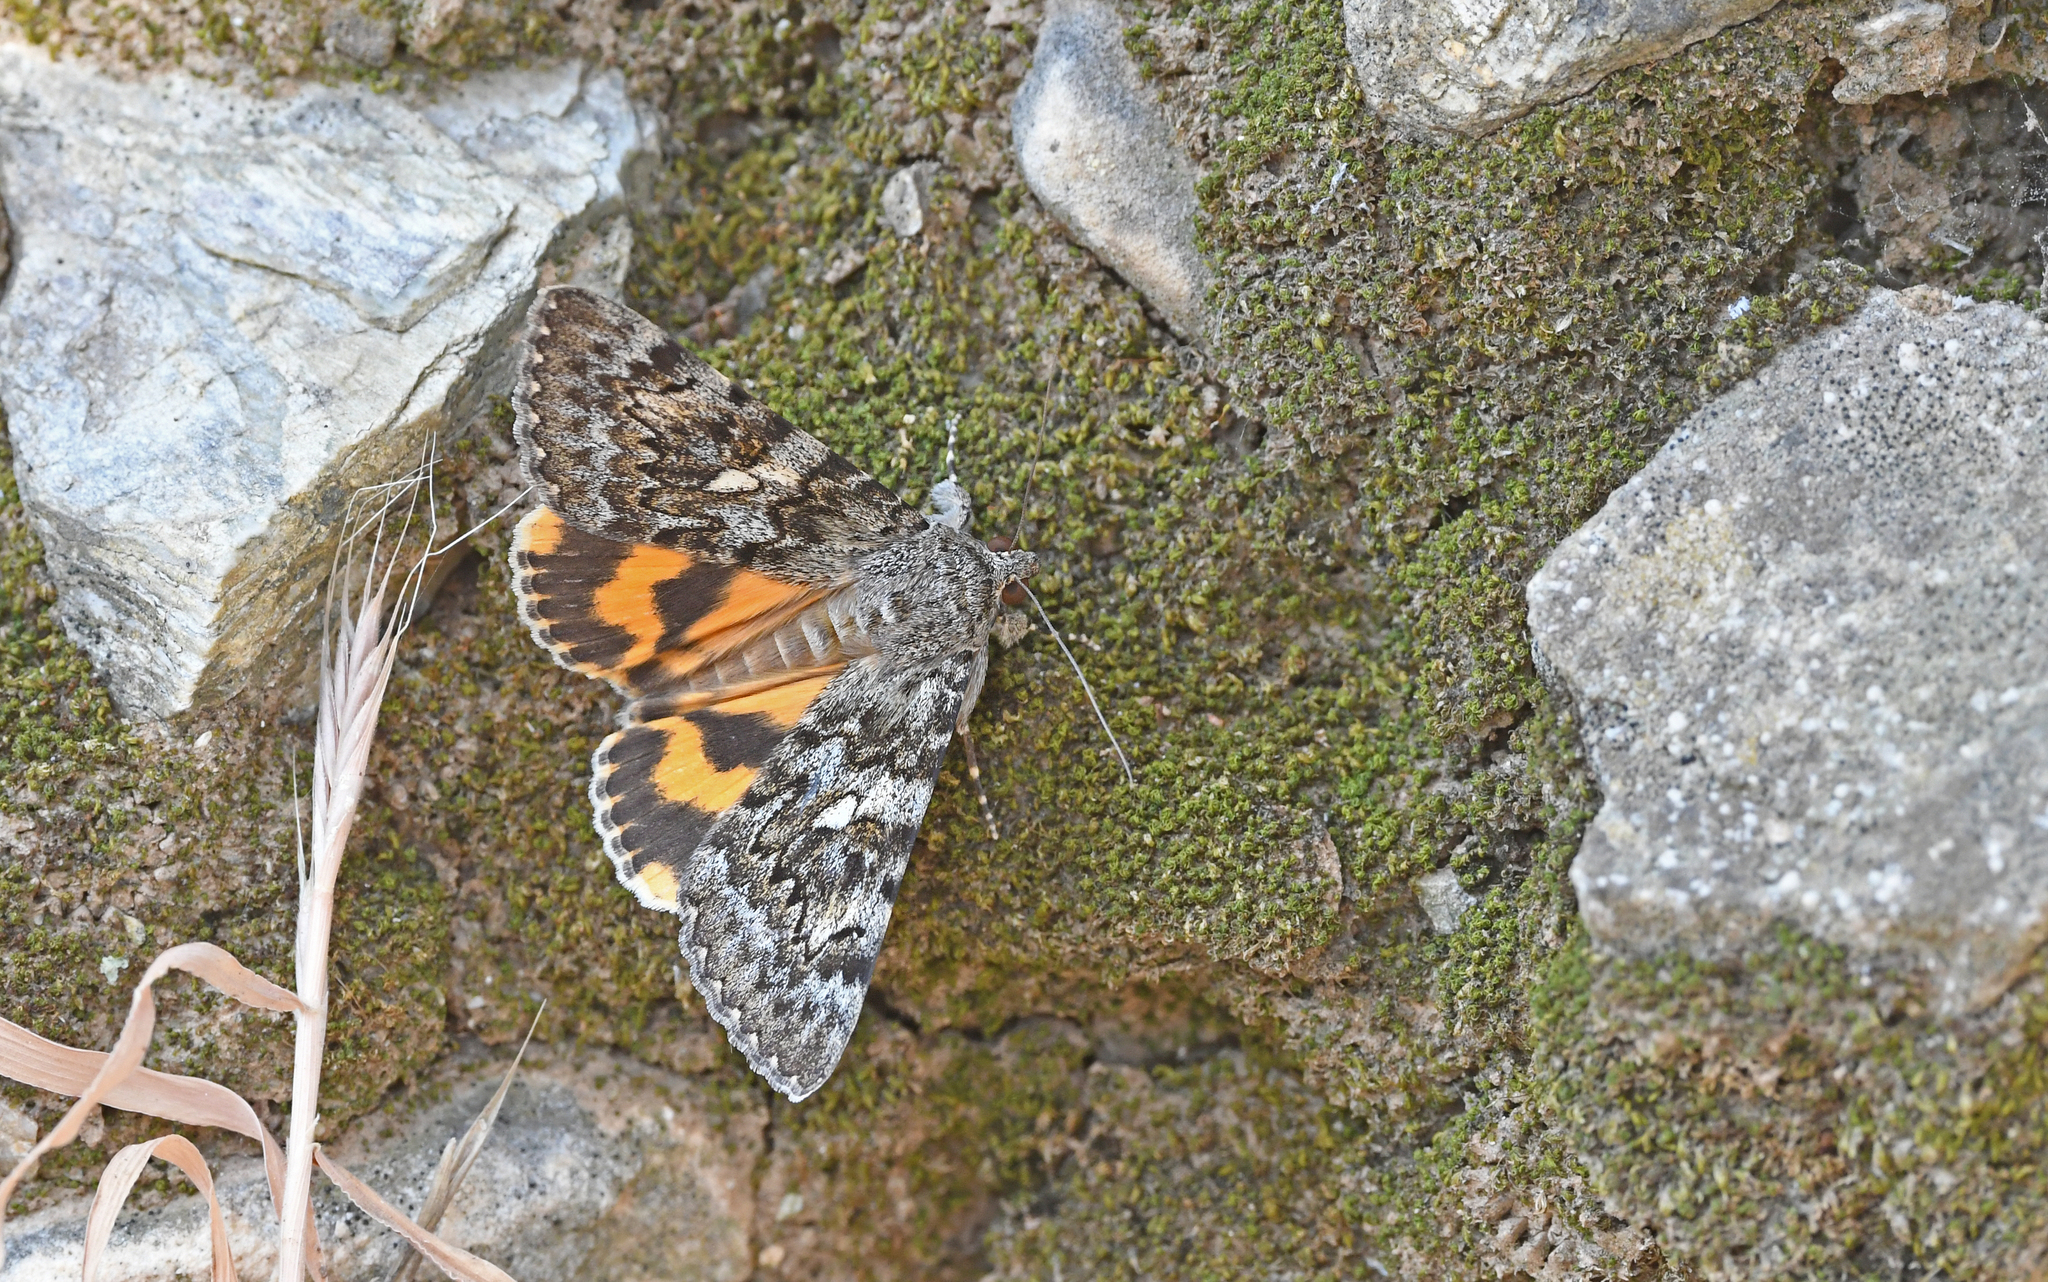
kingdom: Animalia
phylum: Arthropoda
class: Insecta
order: Lepidoptera
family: Erebidae
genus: Catocala
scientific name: Catocala nymphaea
